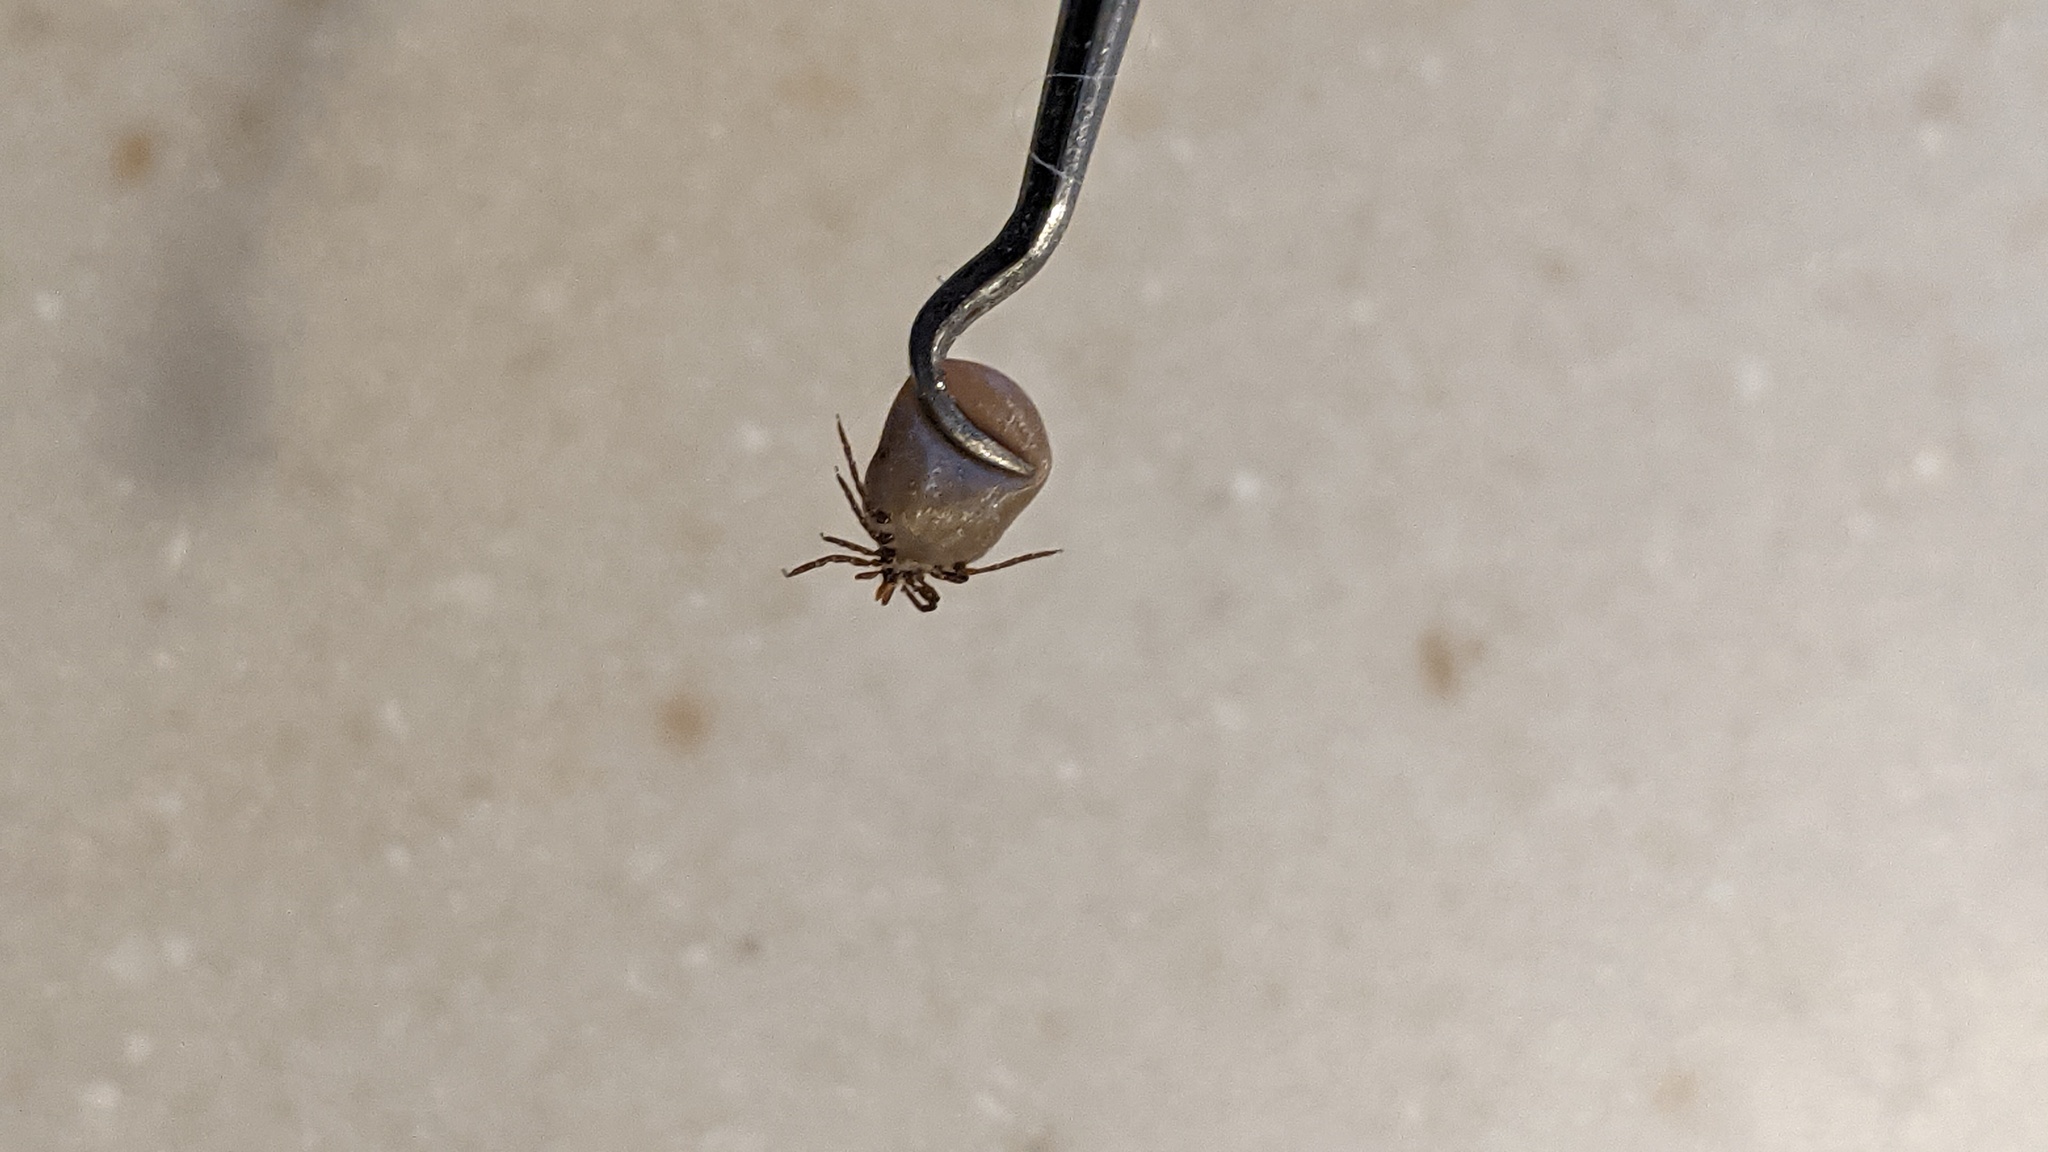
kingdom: Animalia
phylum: Arthropoda
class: Arachnida
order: Ixodida
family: Ixodidae
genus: Ixodes
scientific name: Ixodes scapularis
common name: Black legged tick
